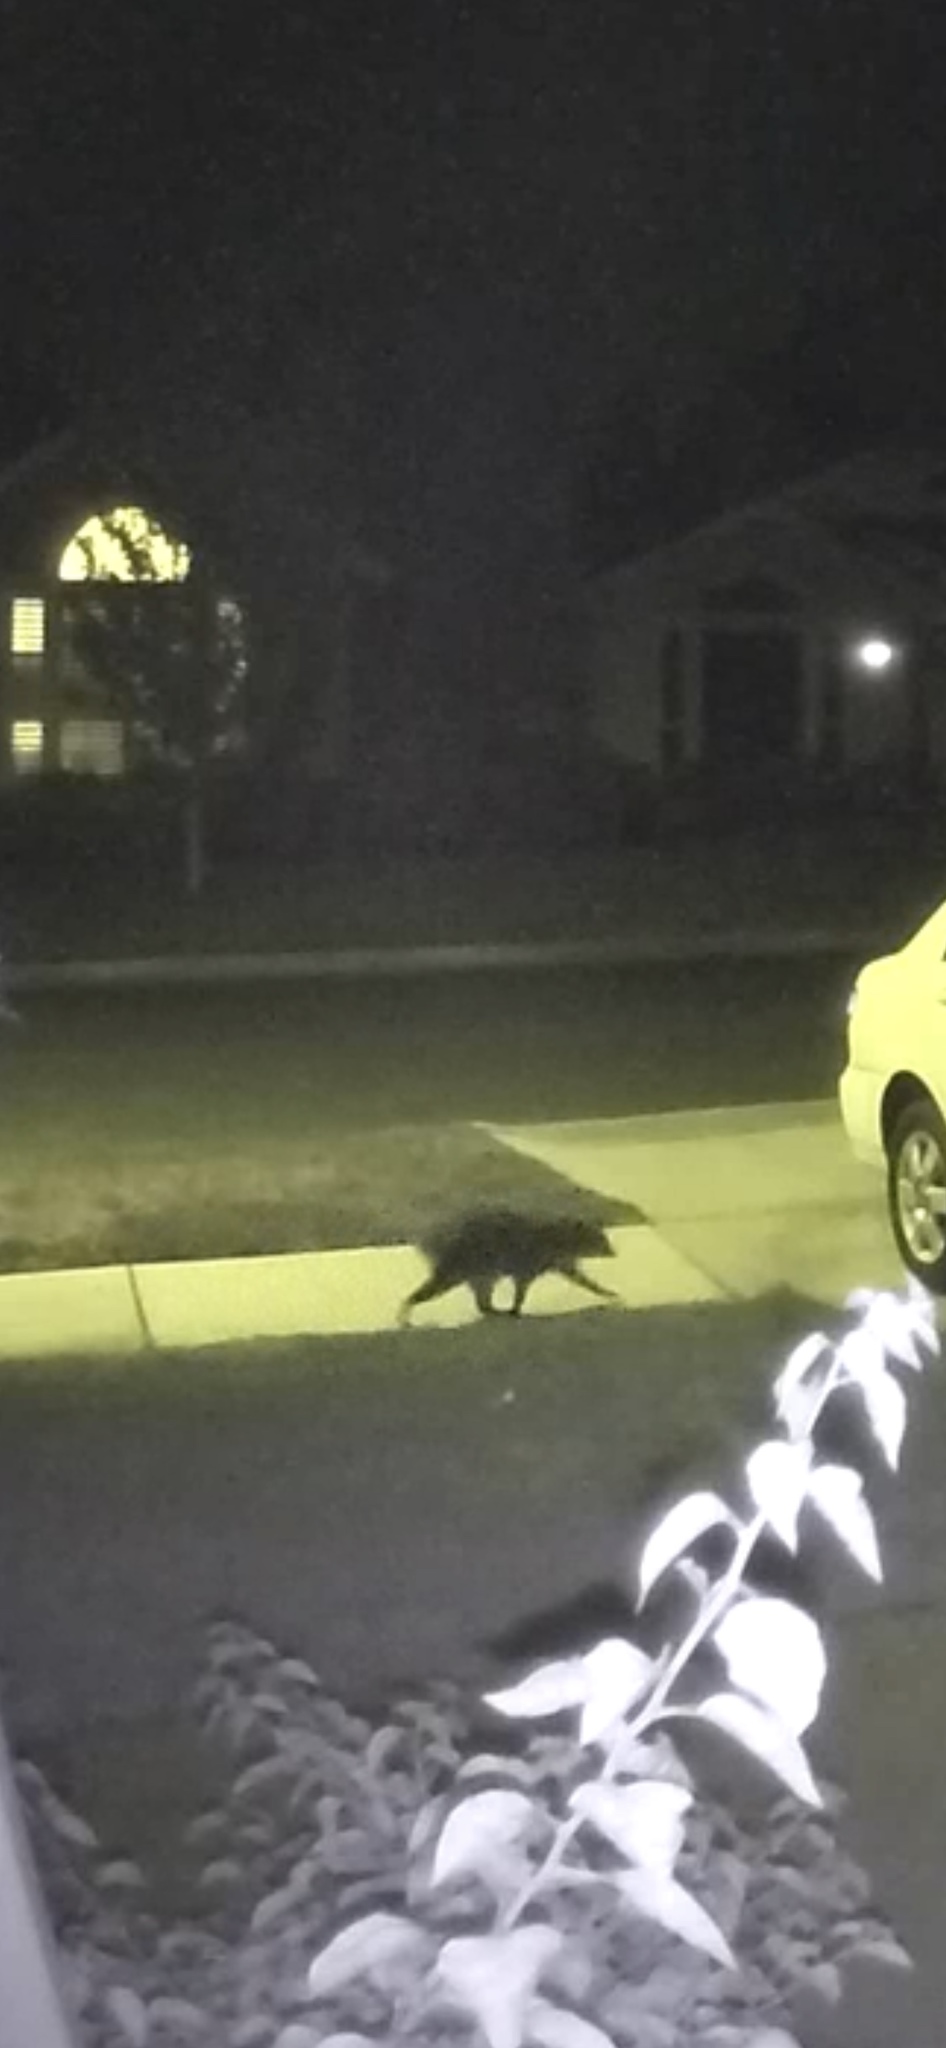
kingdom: Animalia
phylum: Chordata
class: Mammalia
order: Carnivora
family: Procyonidae
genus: Procyon
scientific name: Procyon lotor
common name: Raccoon
